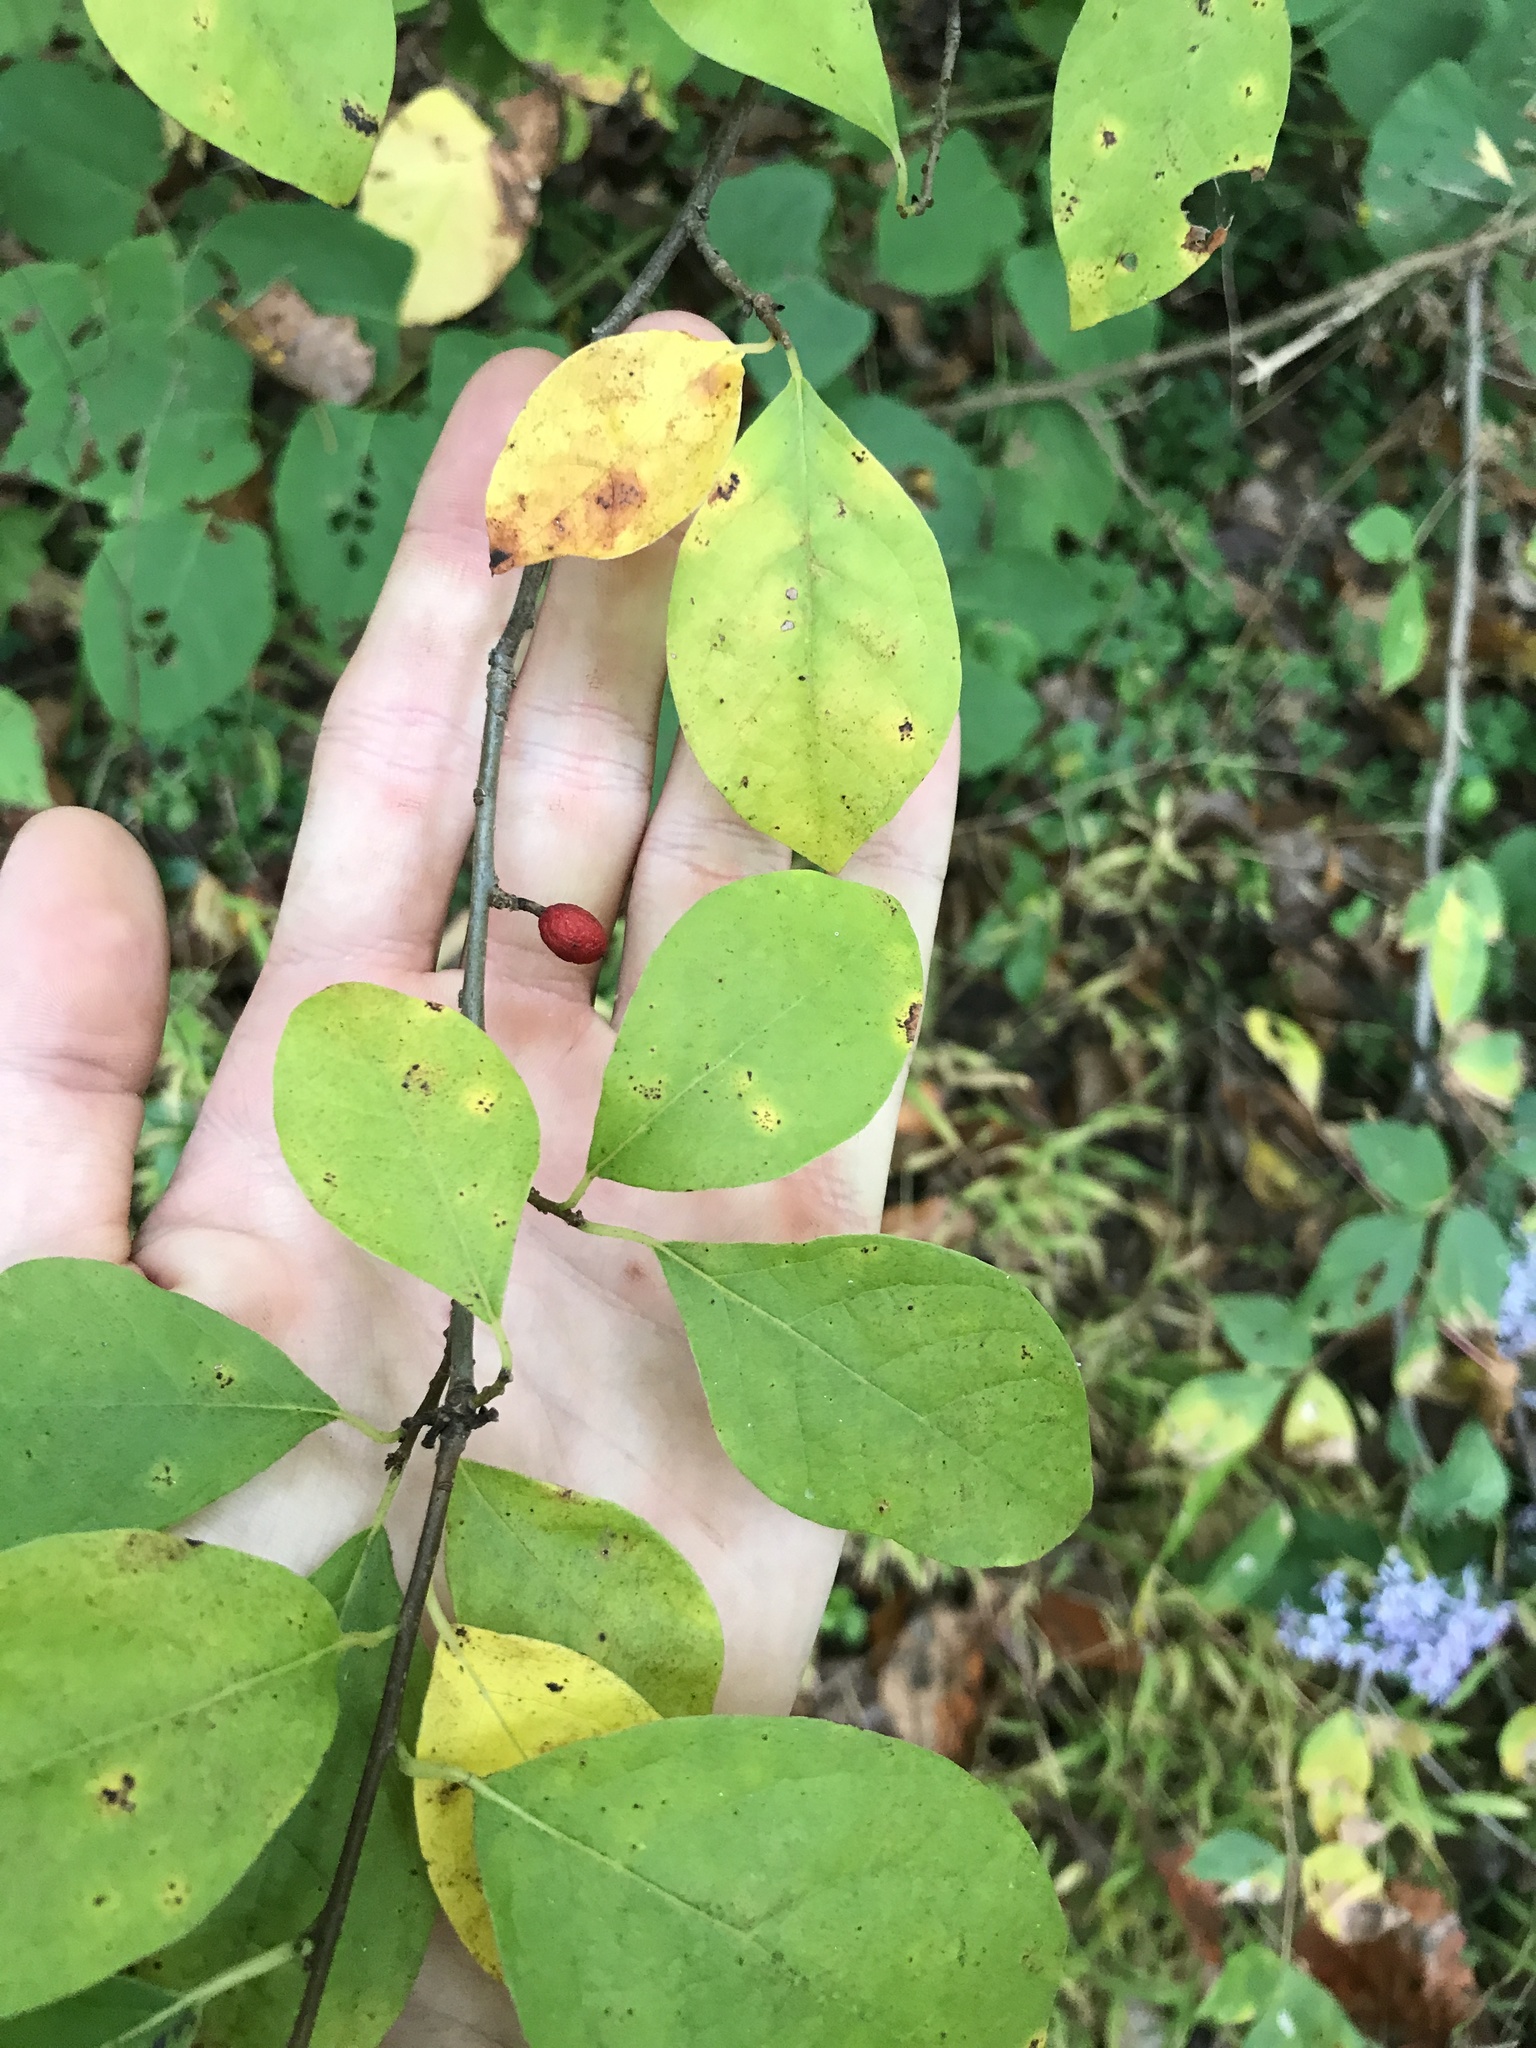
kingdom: Plantae
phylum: Tracheophyta
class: Magnoliopsida
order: Laurales
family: Lauraceae
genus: Lindera
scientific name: Lindera benzoin
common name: Spicebush
